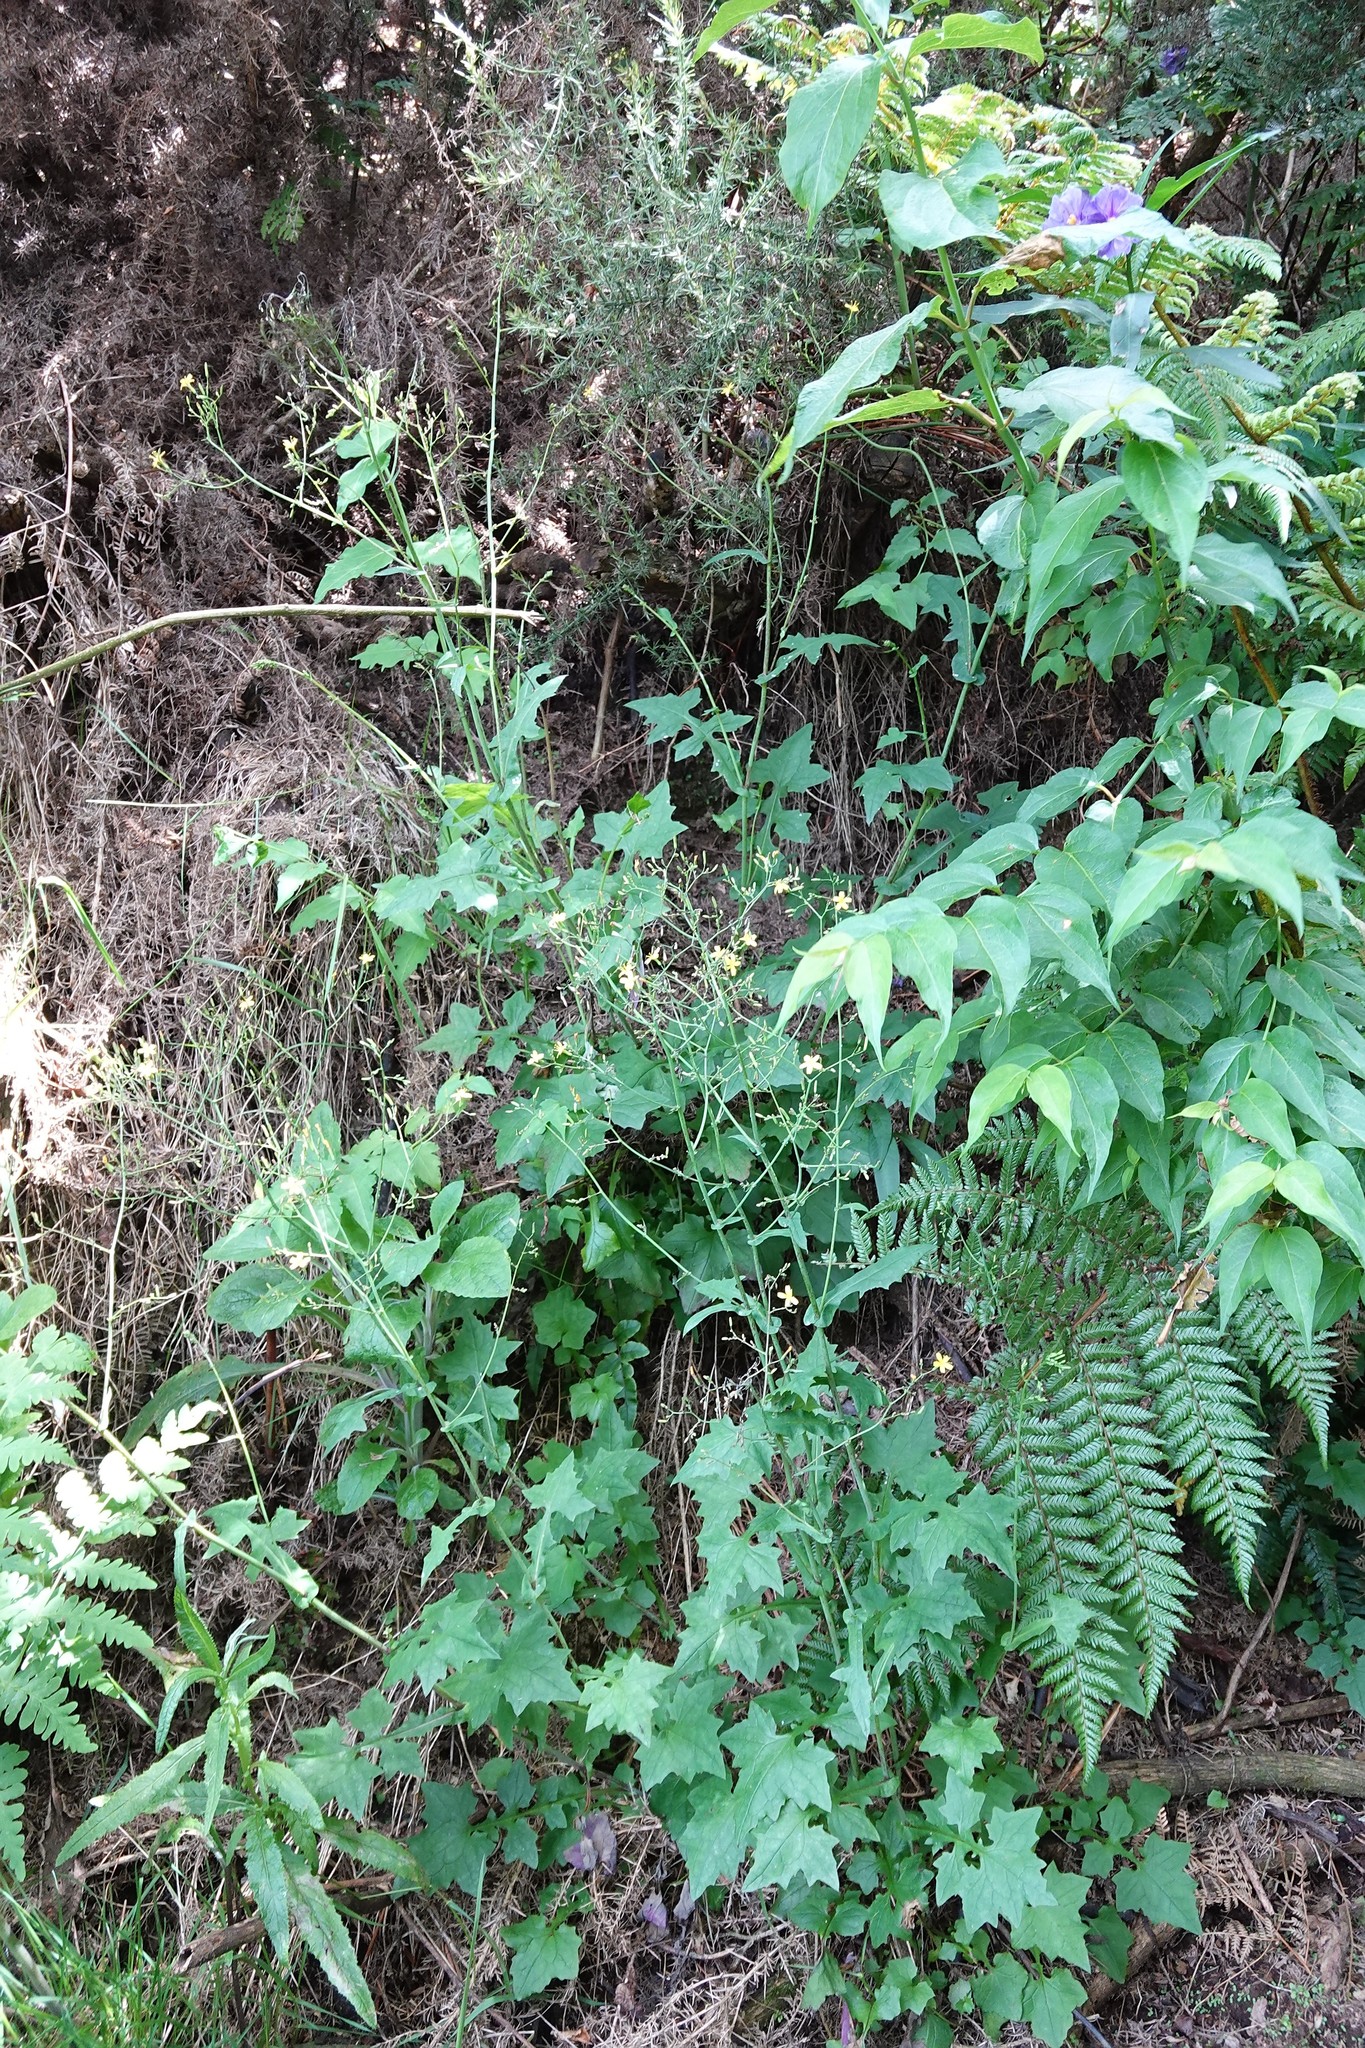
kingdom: Plantae
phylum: Tracheophyta
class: Magnoliopsida
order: Asterales
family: Asteraceae
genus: Mycelis
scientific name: Mycelis muralis
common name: Wall lettuce
